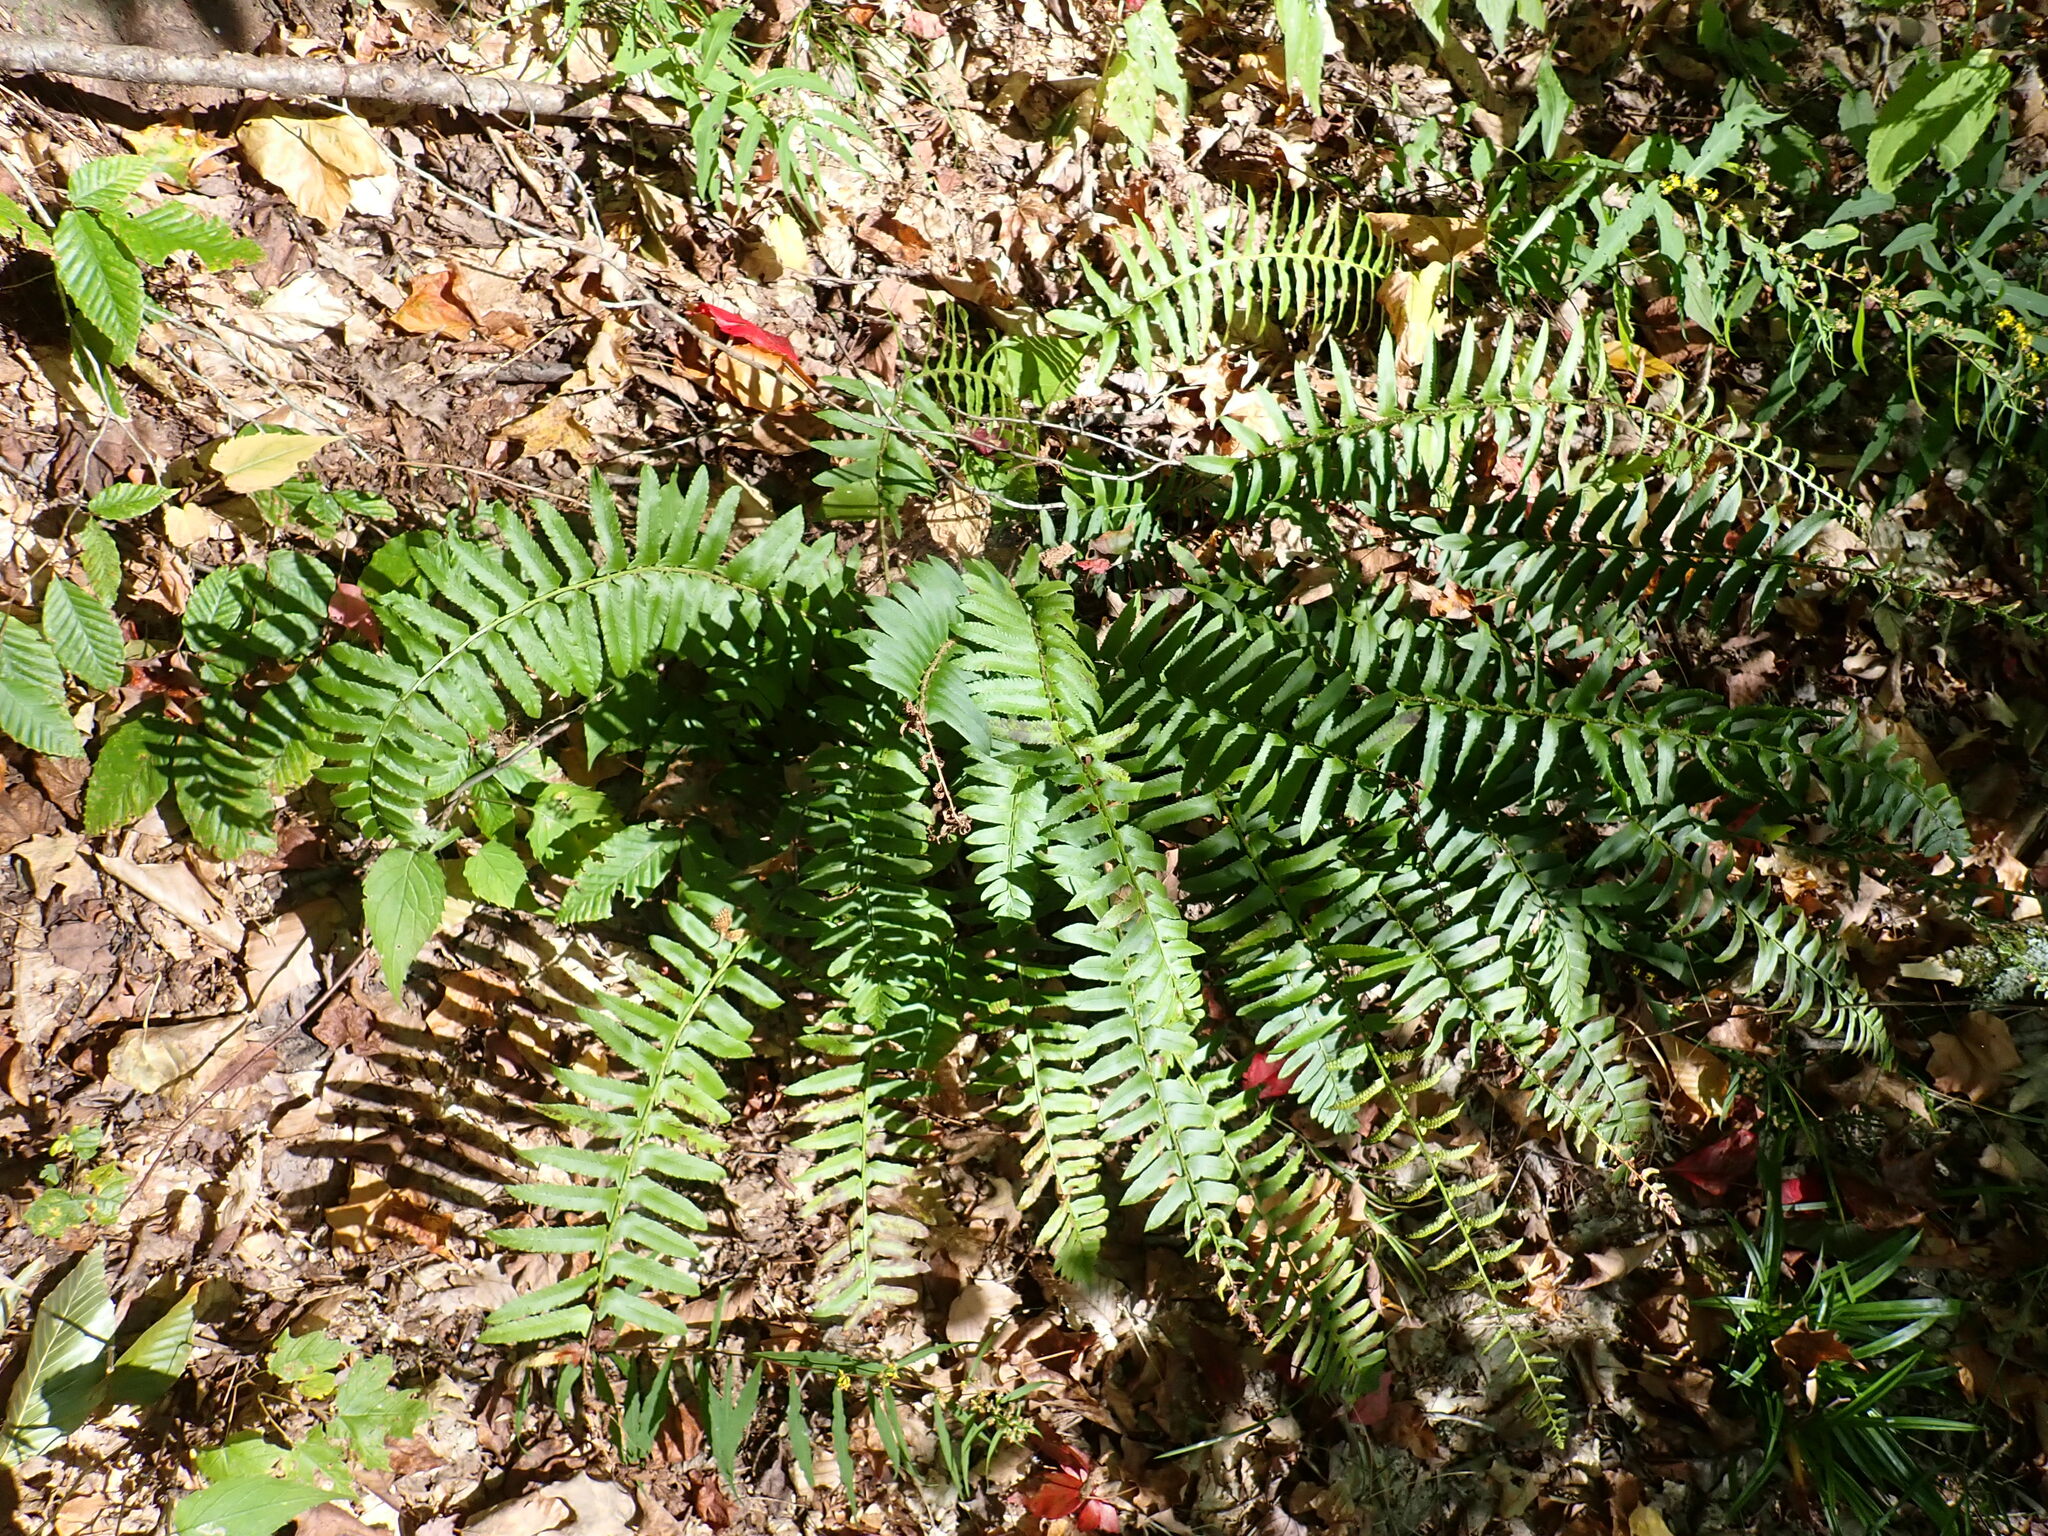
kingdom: Plantae
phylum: Tracheophyta
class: Polypodiopsida
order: Polypodiales
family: Dryopteridaceae
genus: Polystichum
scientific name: Polystichum acrostichoides
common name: Christmas fern
